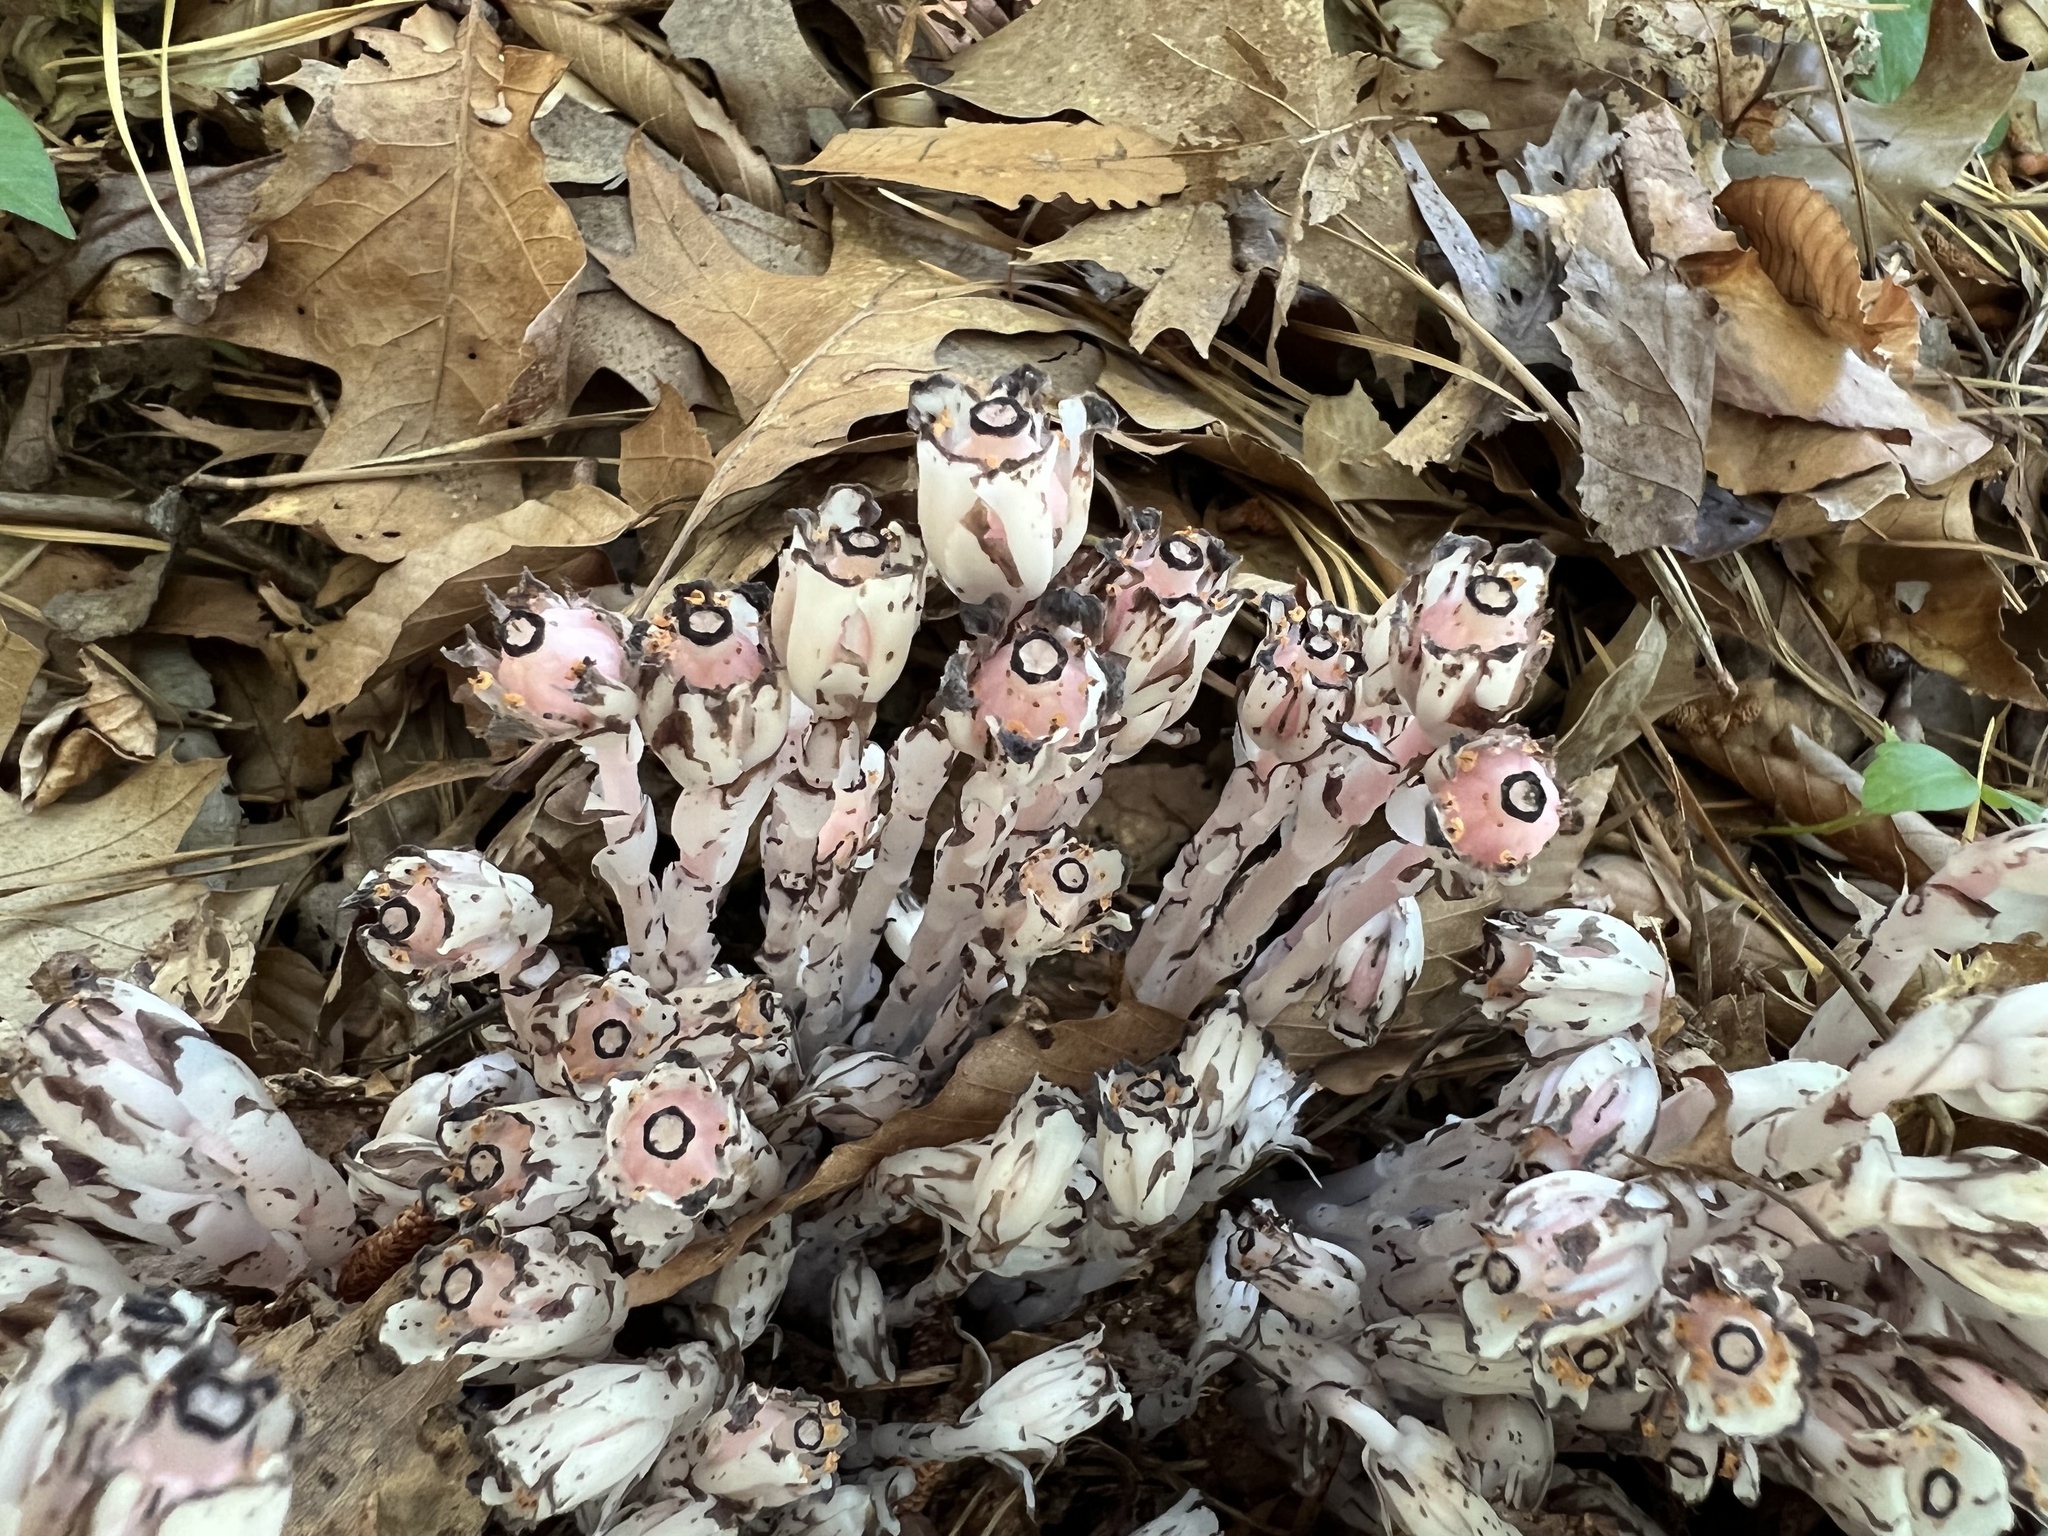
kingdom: Plantae
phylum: Tracheophyta
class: Magnoliopsida
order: Ericales
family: Ericaceae
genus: Monotropa
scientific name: Monotropa uniflora
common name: Convulsion root
